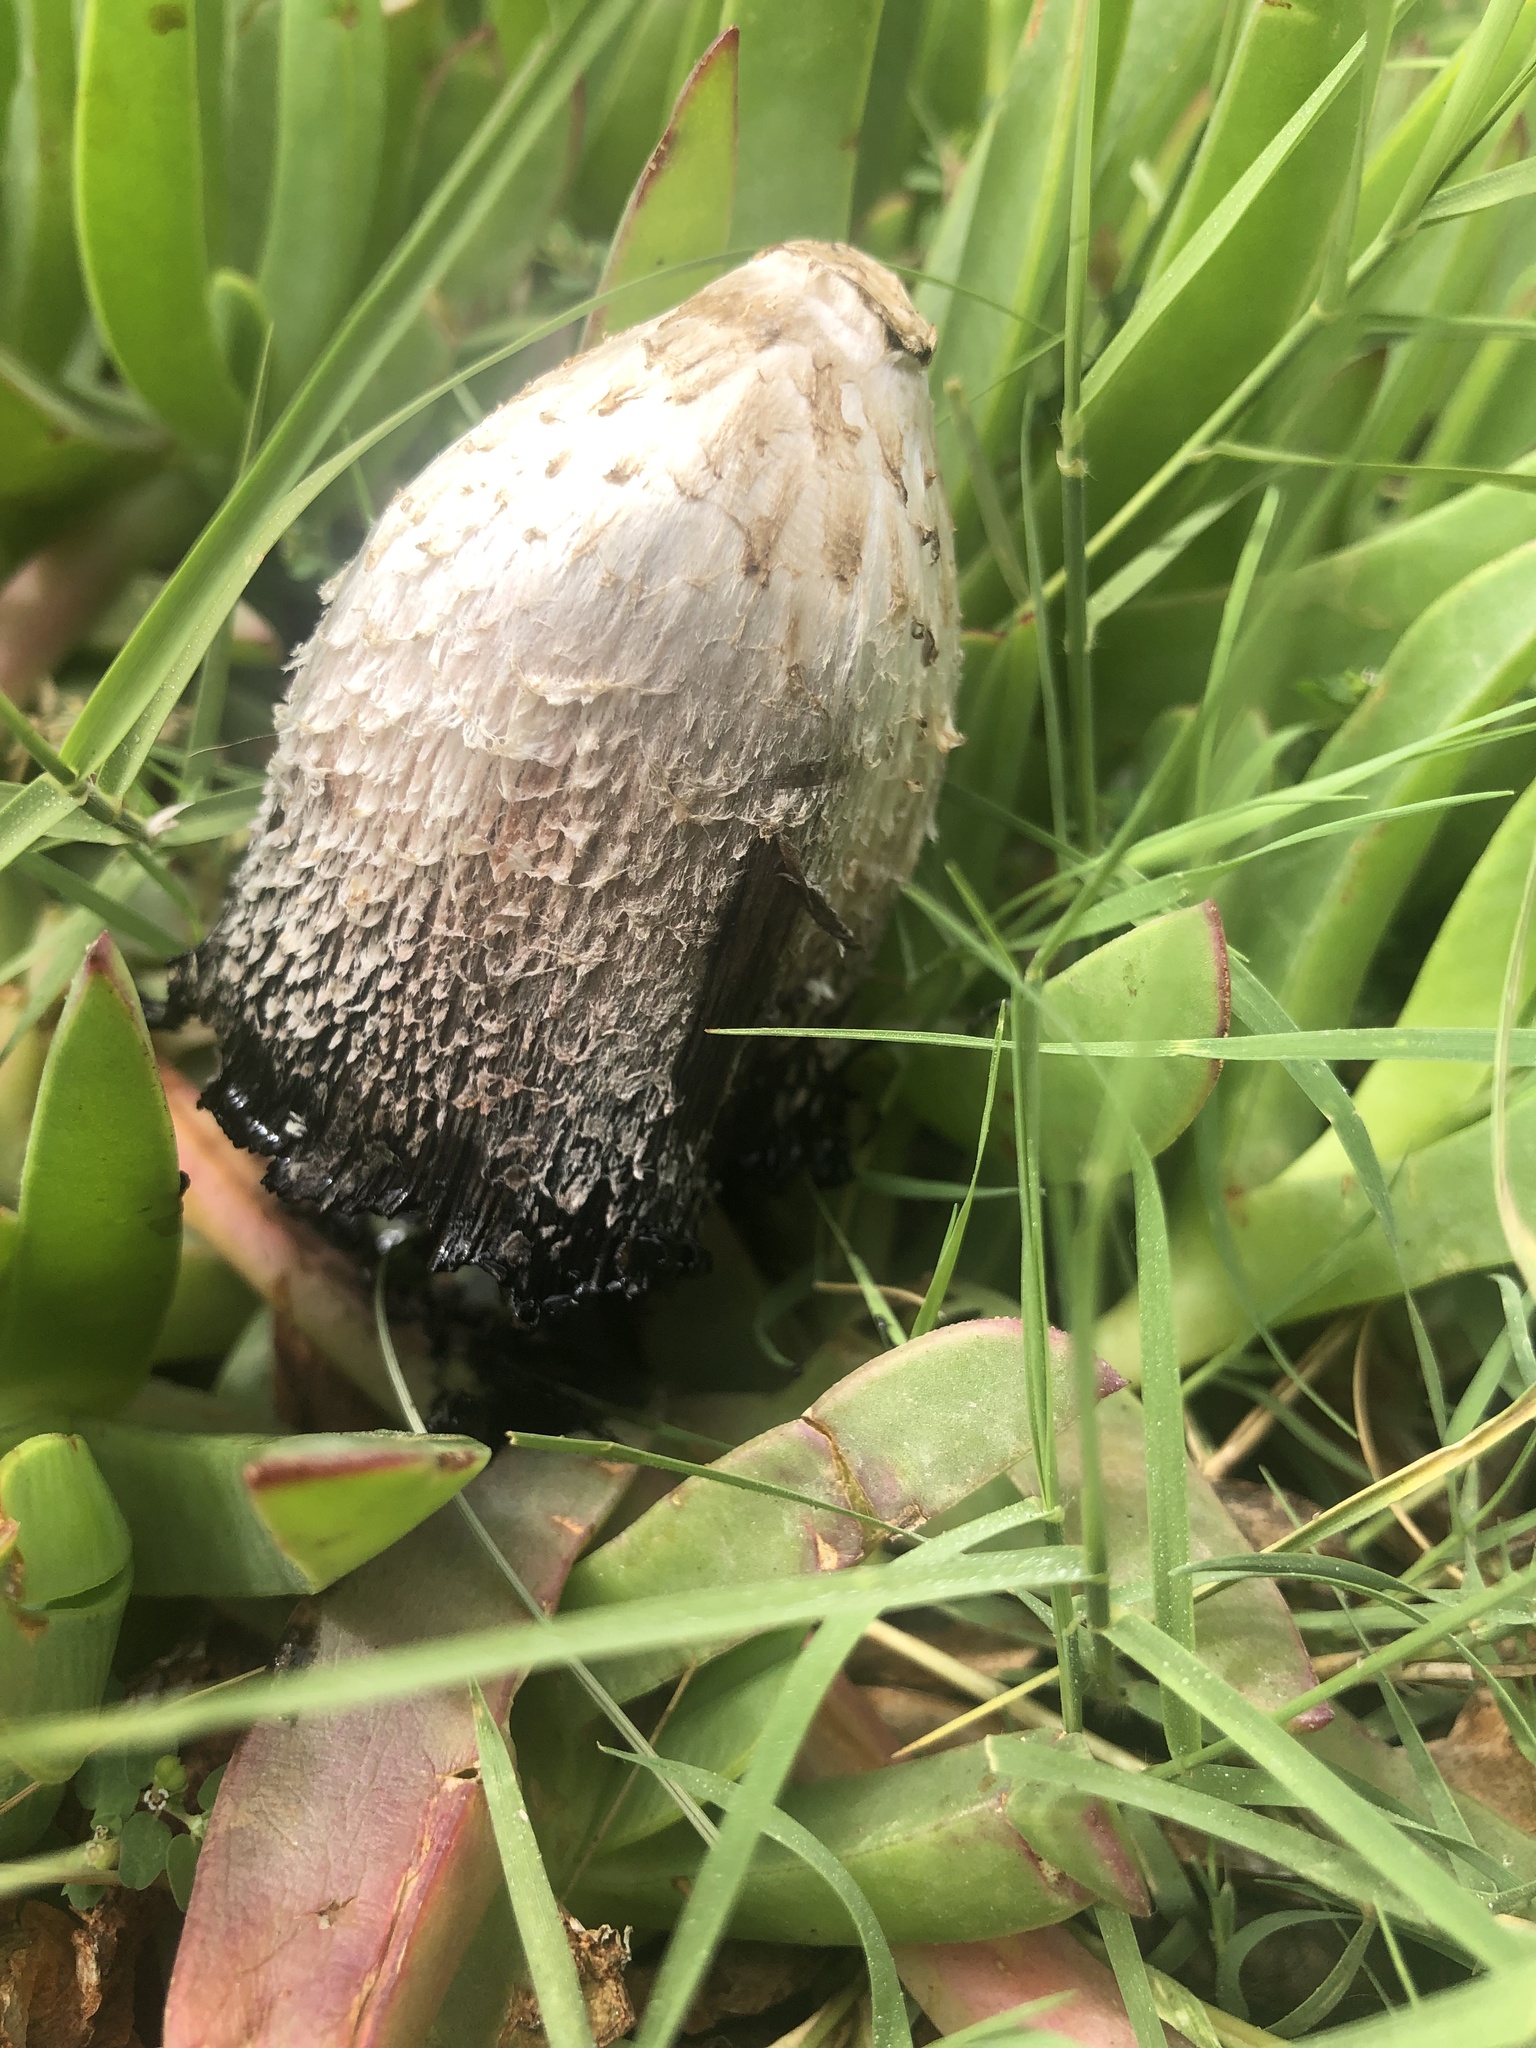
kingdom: Fungi
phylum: Basidiomycota
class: Agaricomycetes
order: Agaricales
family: Agaricaceae
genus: Coprinus
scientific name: Coprinus comatus
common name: Lawyer's wig
